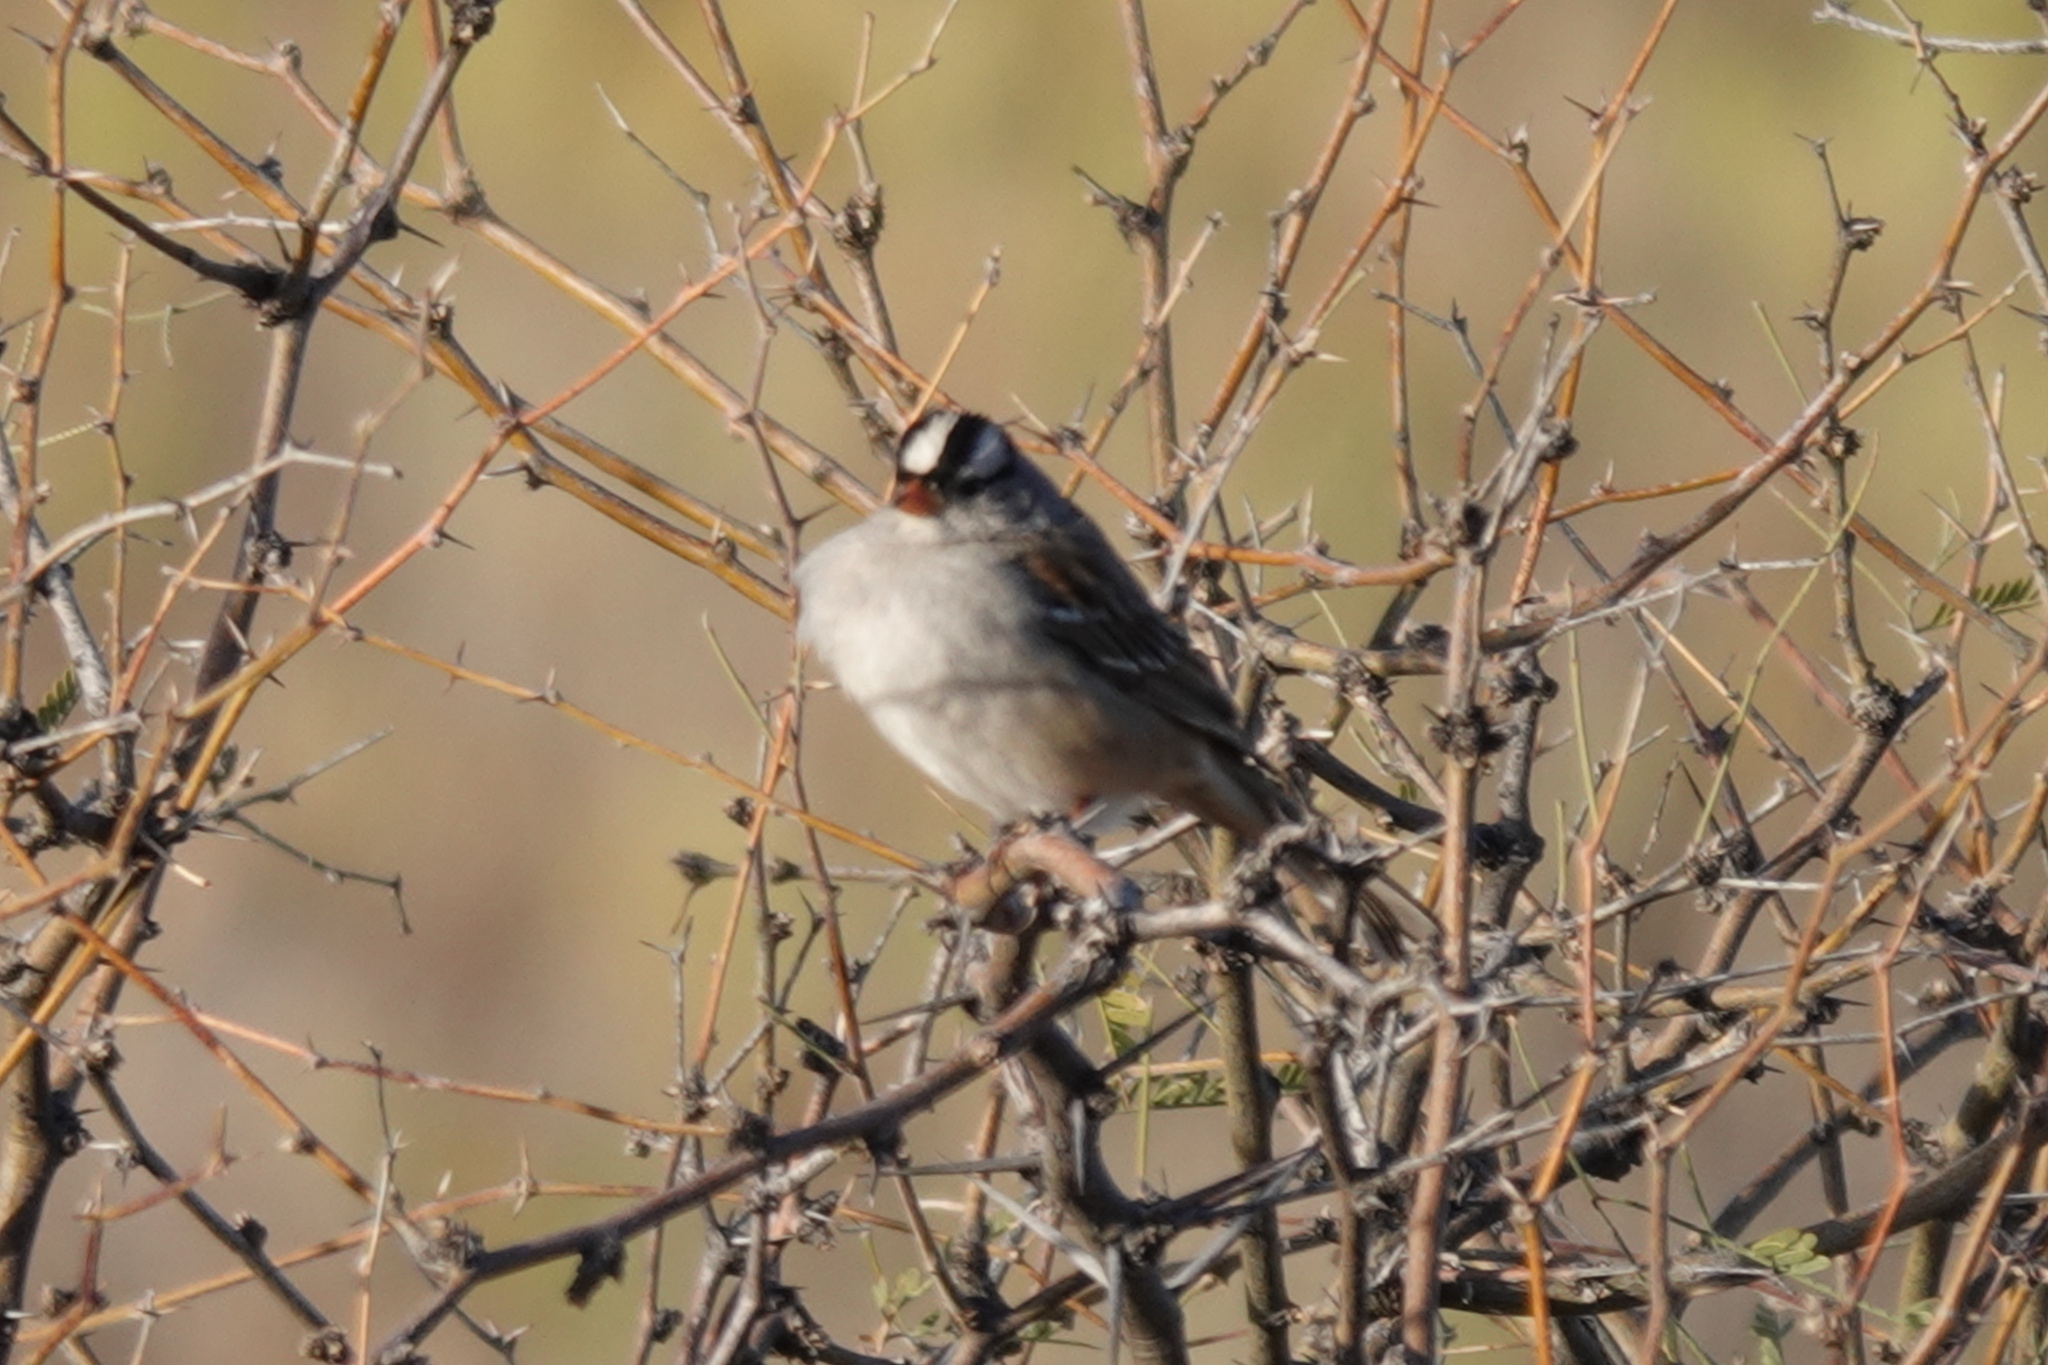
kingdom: Animalia
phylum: Chordata
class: Aves
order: Passeriformes
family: Passerellidae
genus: Zonotrichia
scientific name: Zonotrichia leucophrys
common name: White-crowned sparrow
